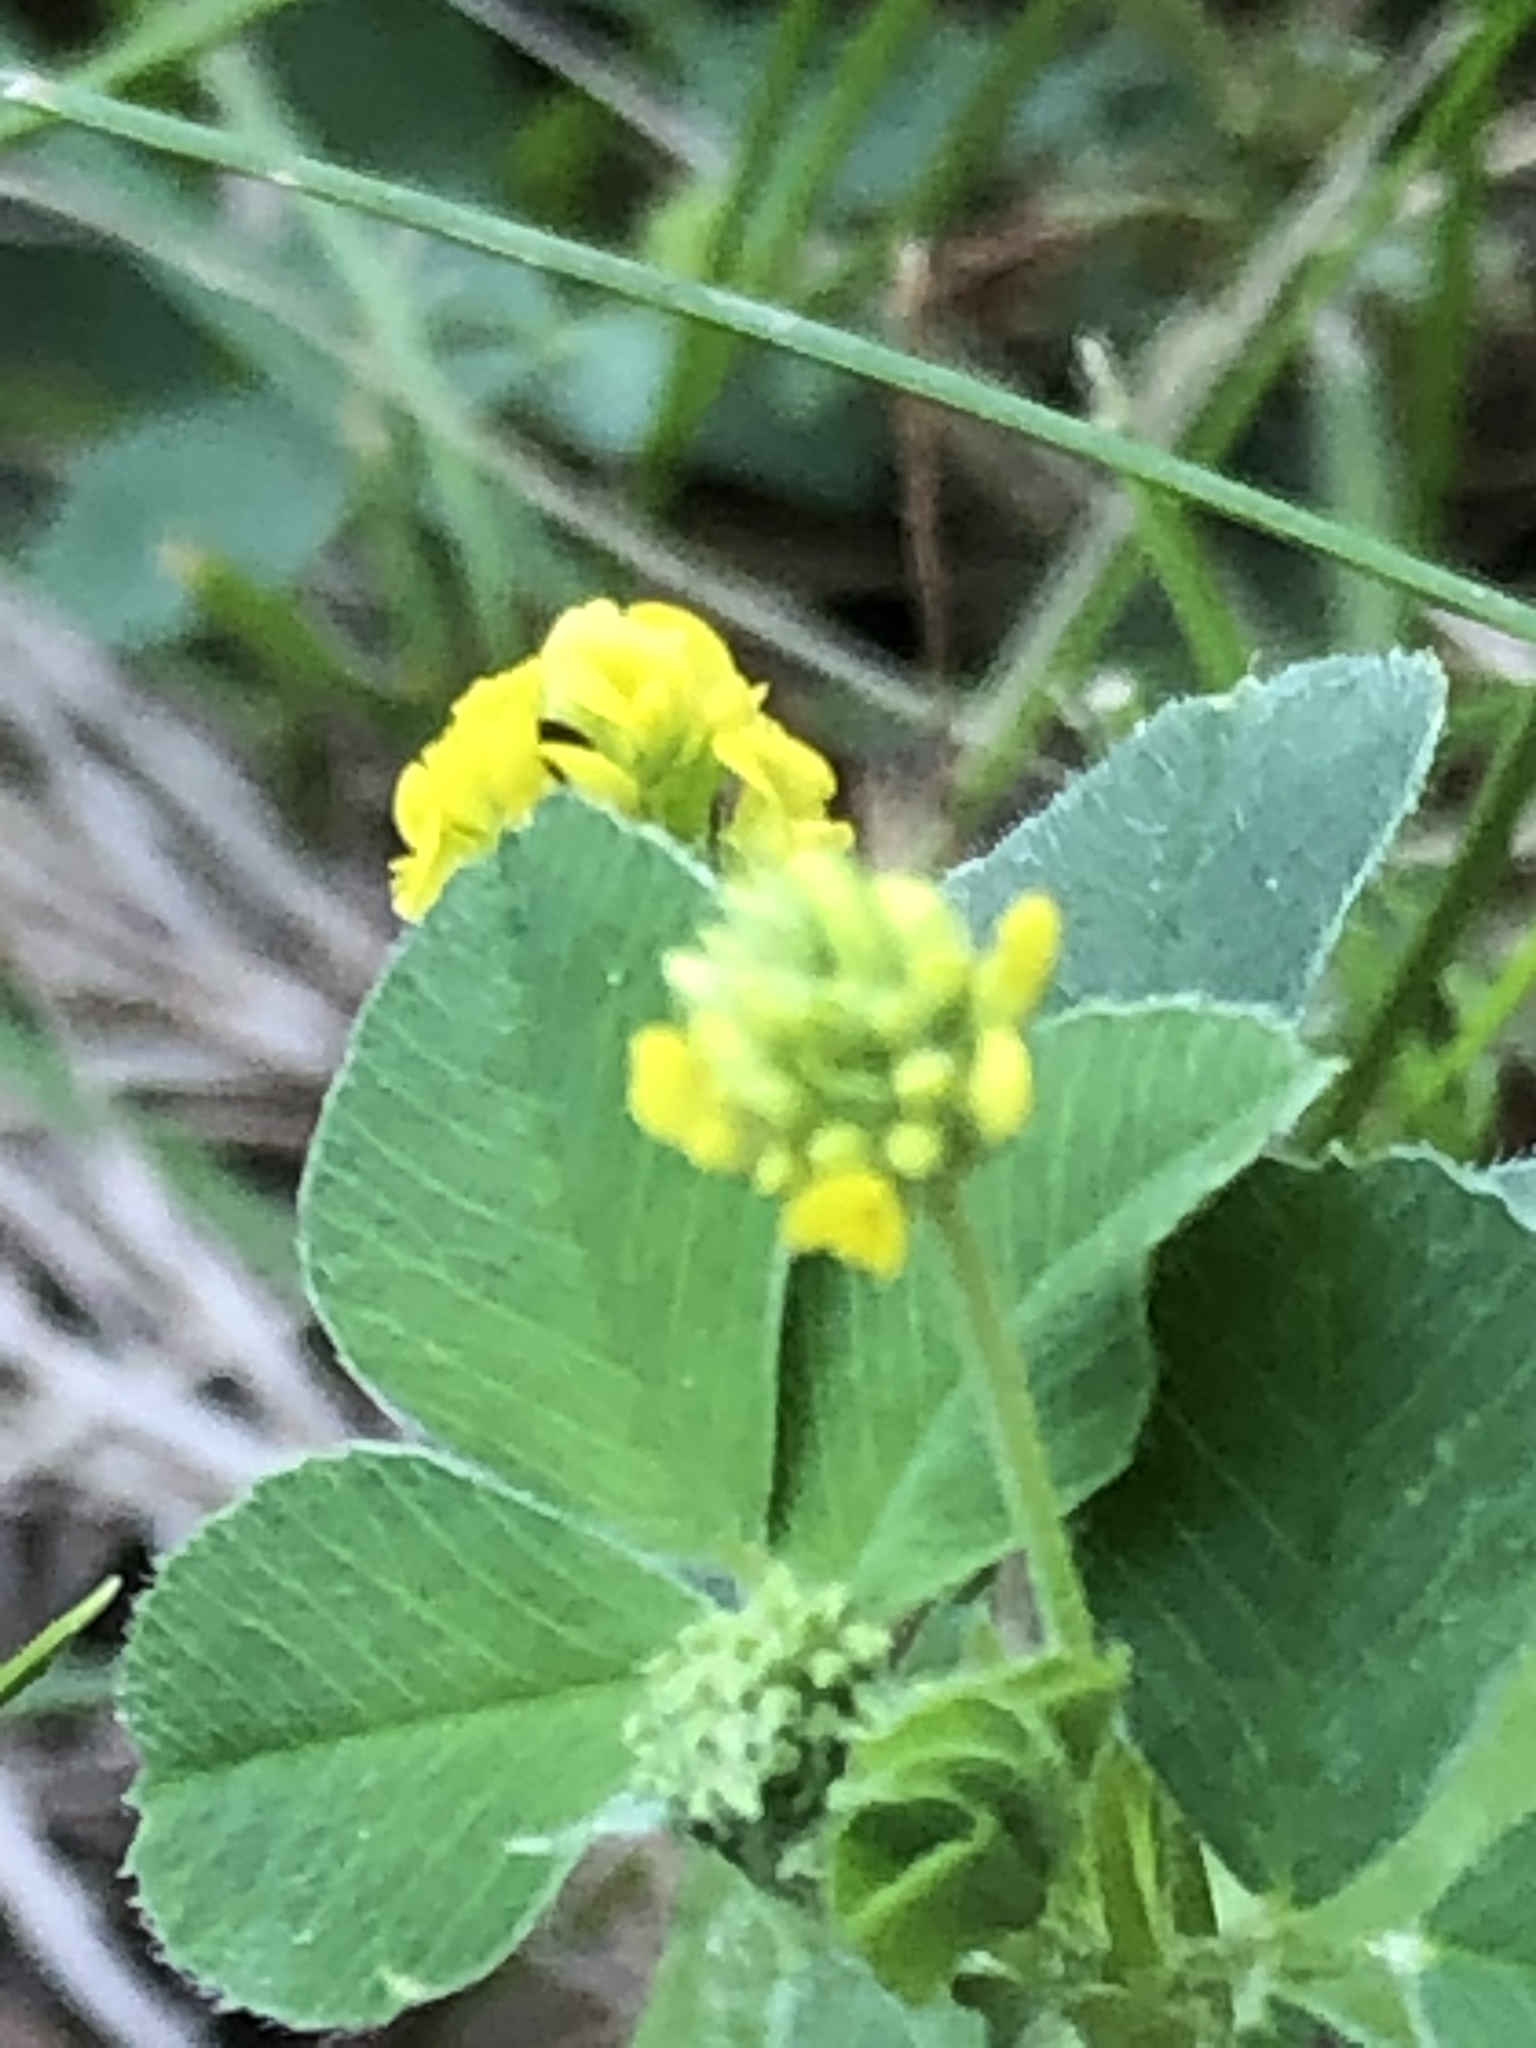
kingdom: Plantae
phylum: Tracheophyta
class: Magnoliopsida
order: Fabales
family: Fabaceae
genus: Medicago
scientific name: Medicago lupulina
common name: Black medick
